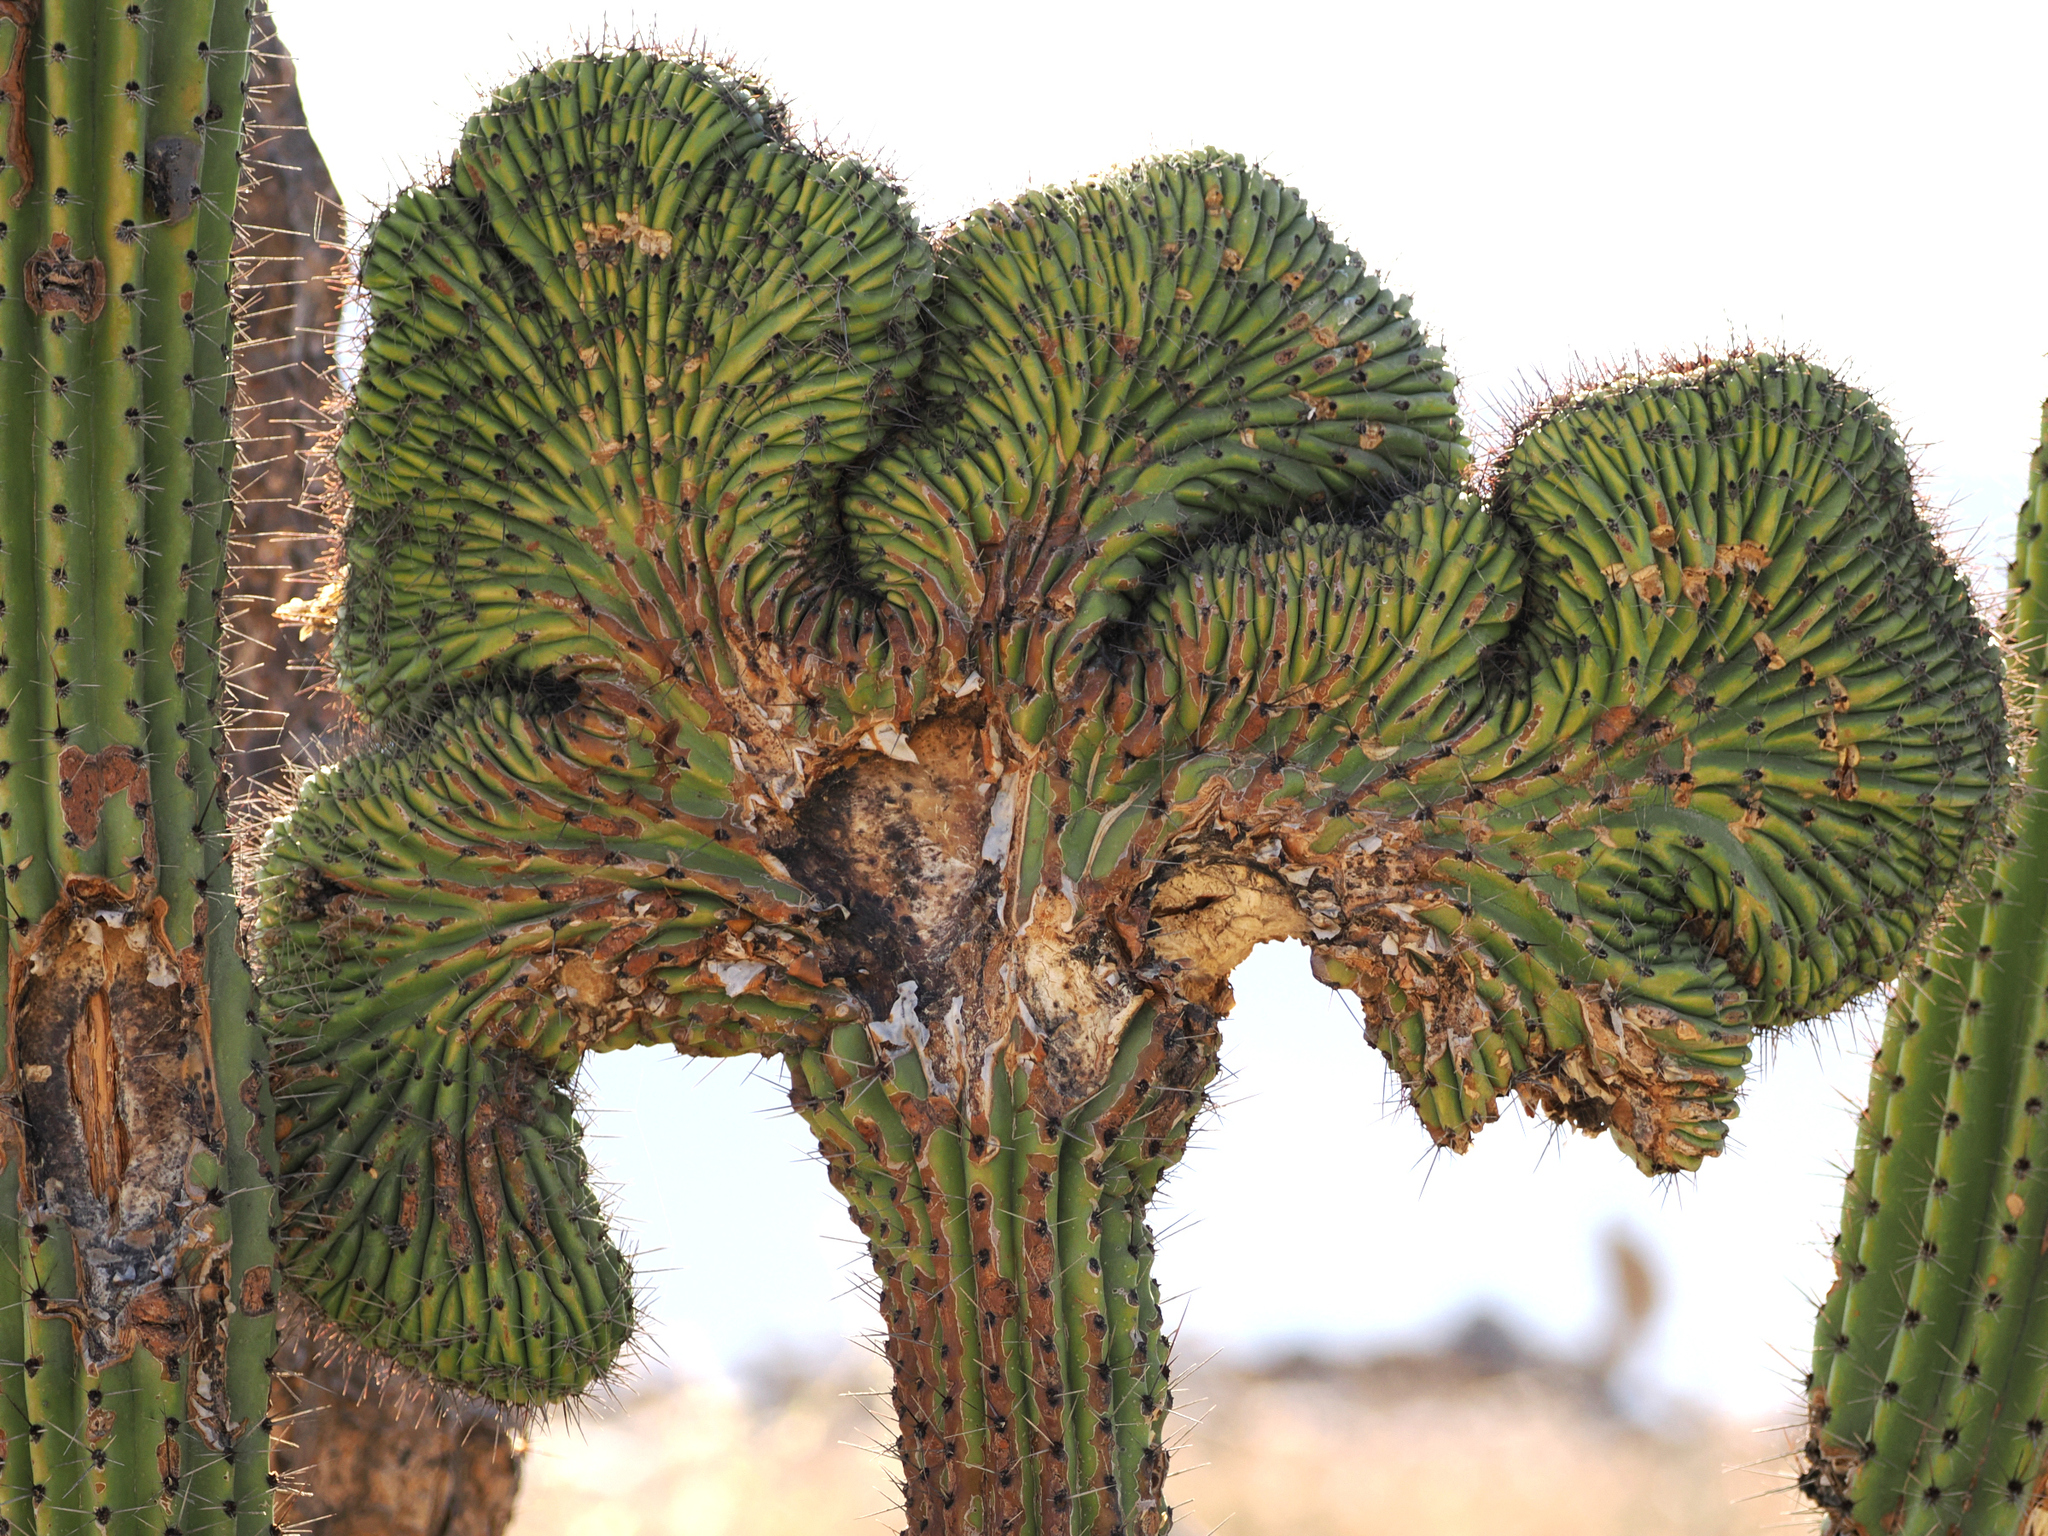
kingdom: Plantae
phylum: Tracheophyta
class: Magnoliopsida
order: Caryophyllales
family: Cactaceae
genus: Pachycereus
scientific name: Pachycereus pringlei
